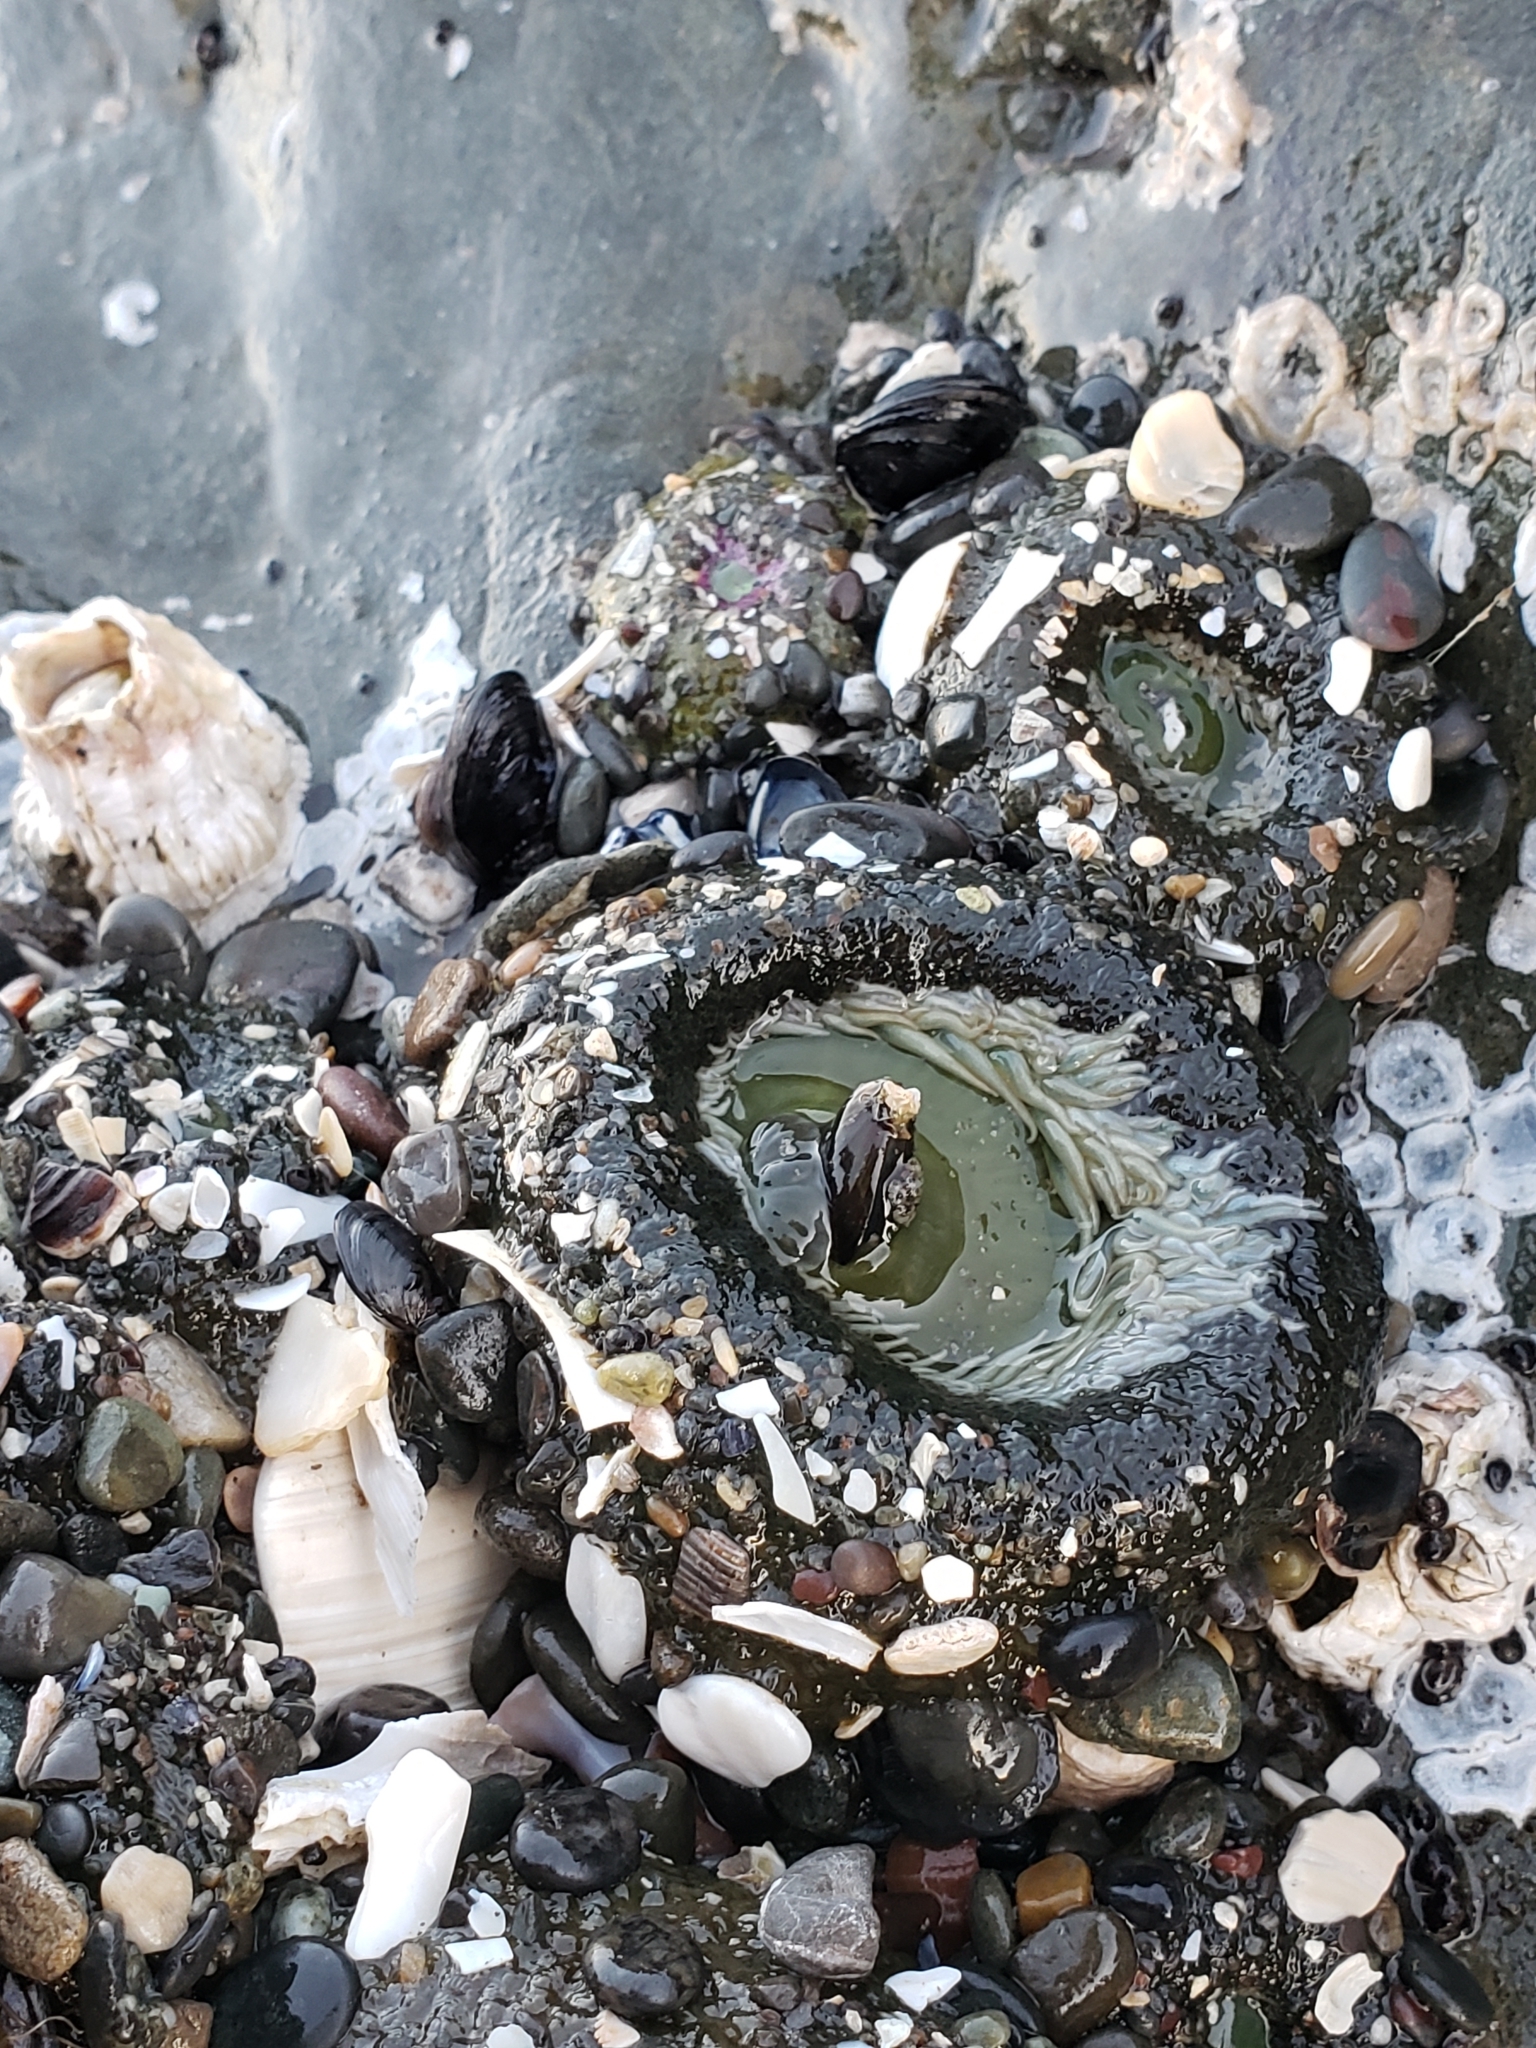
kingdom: Animalia
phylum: Cnidaria
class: Anthozoa
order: Actiniaria
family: Actiniidae
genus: Anthopleura
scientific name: Anthopleura xanthogrammica
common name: Giant green anemone
